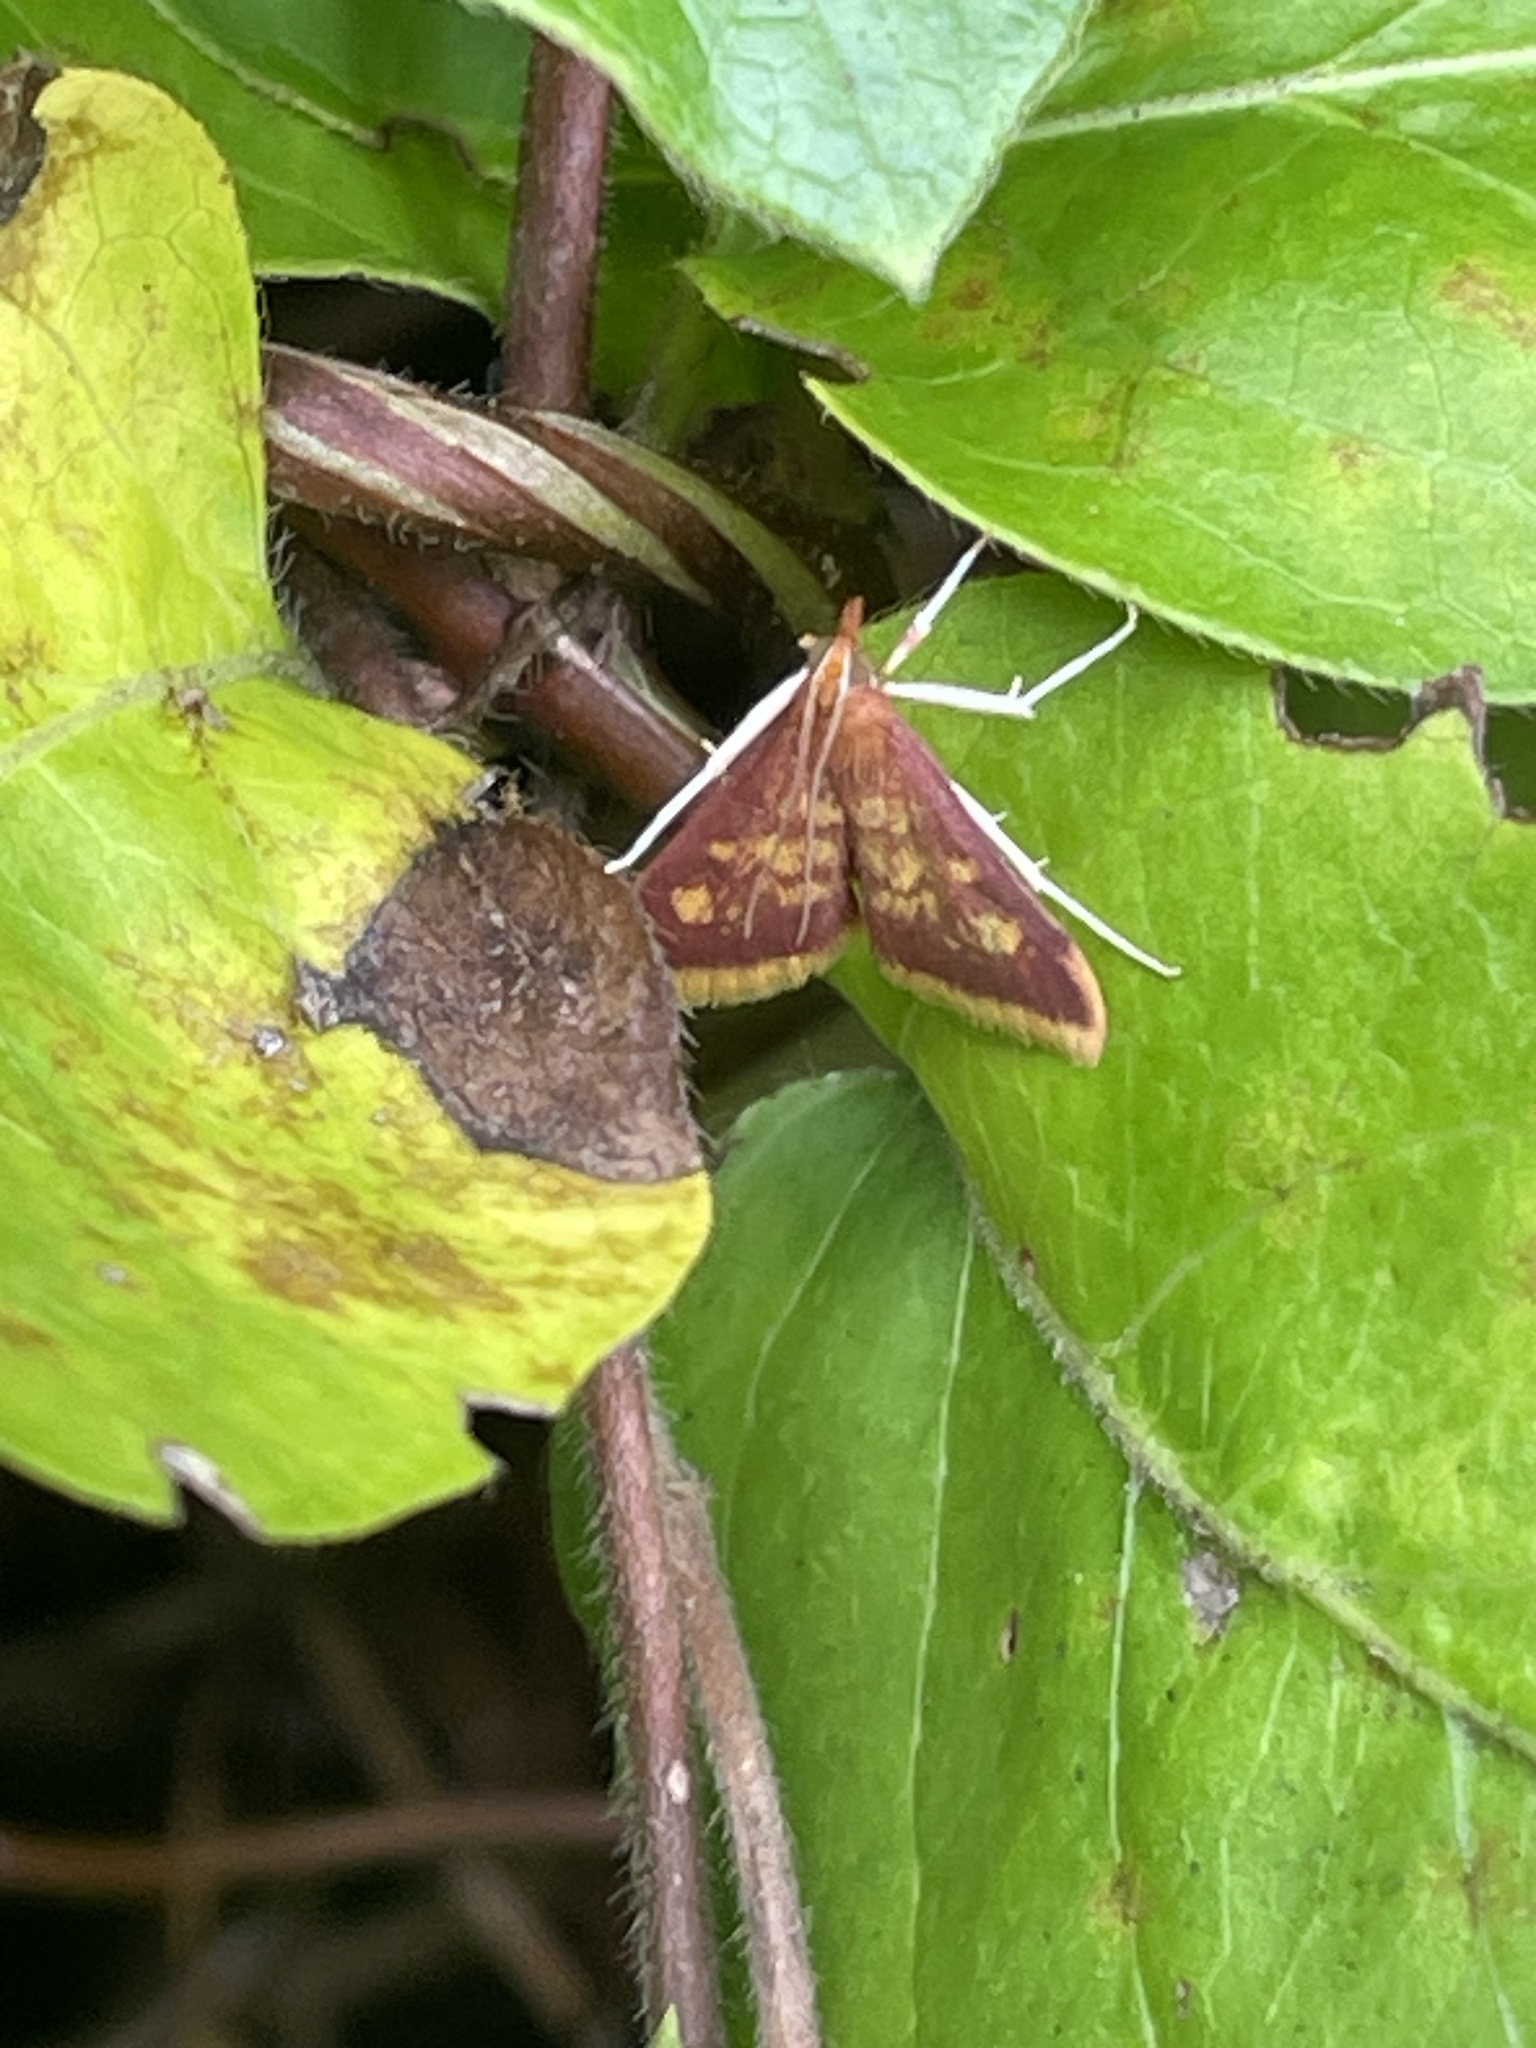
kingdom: Animalia
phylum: Arthropoda
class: Insecta
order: Lepidoptera
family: Crambidae
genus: Pyrausta
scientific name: Pyrausta acrionalis
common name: Mint-loving pyrausta moth
